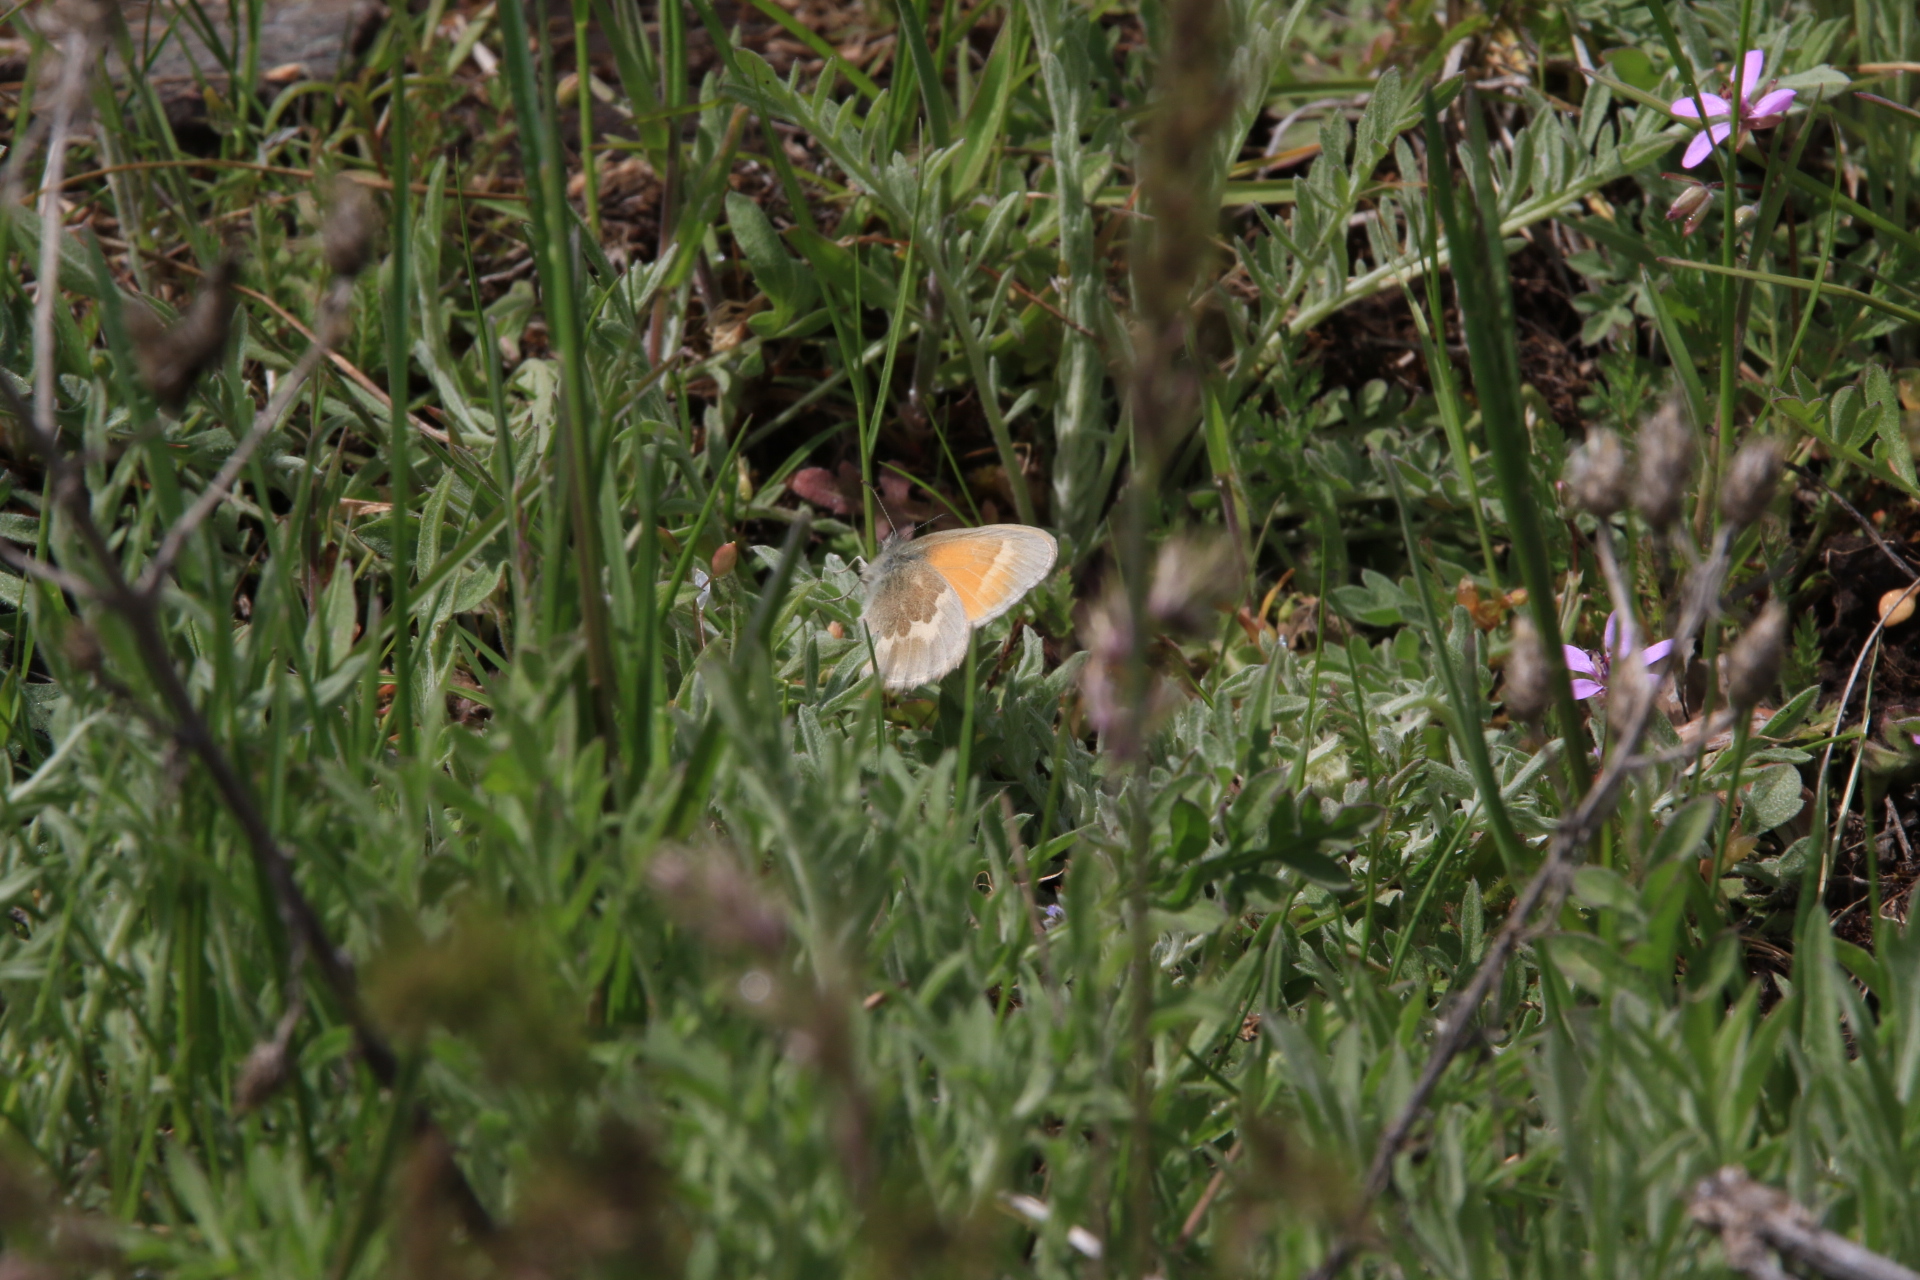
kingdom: Animalia
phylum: Arthropoda
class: Insecta
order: Lepidoptera
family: Nymphalidae
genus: Coenonympha
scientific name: Coenonympha california
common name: Common ringlet
